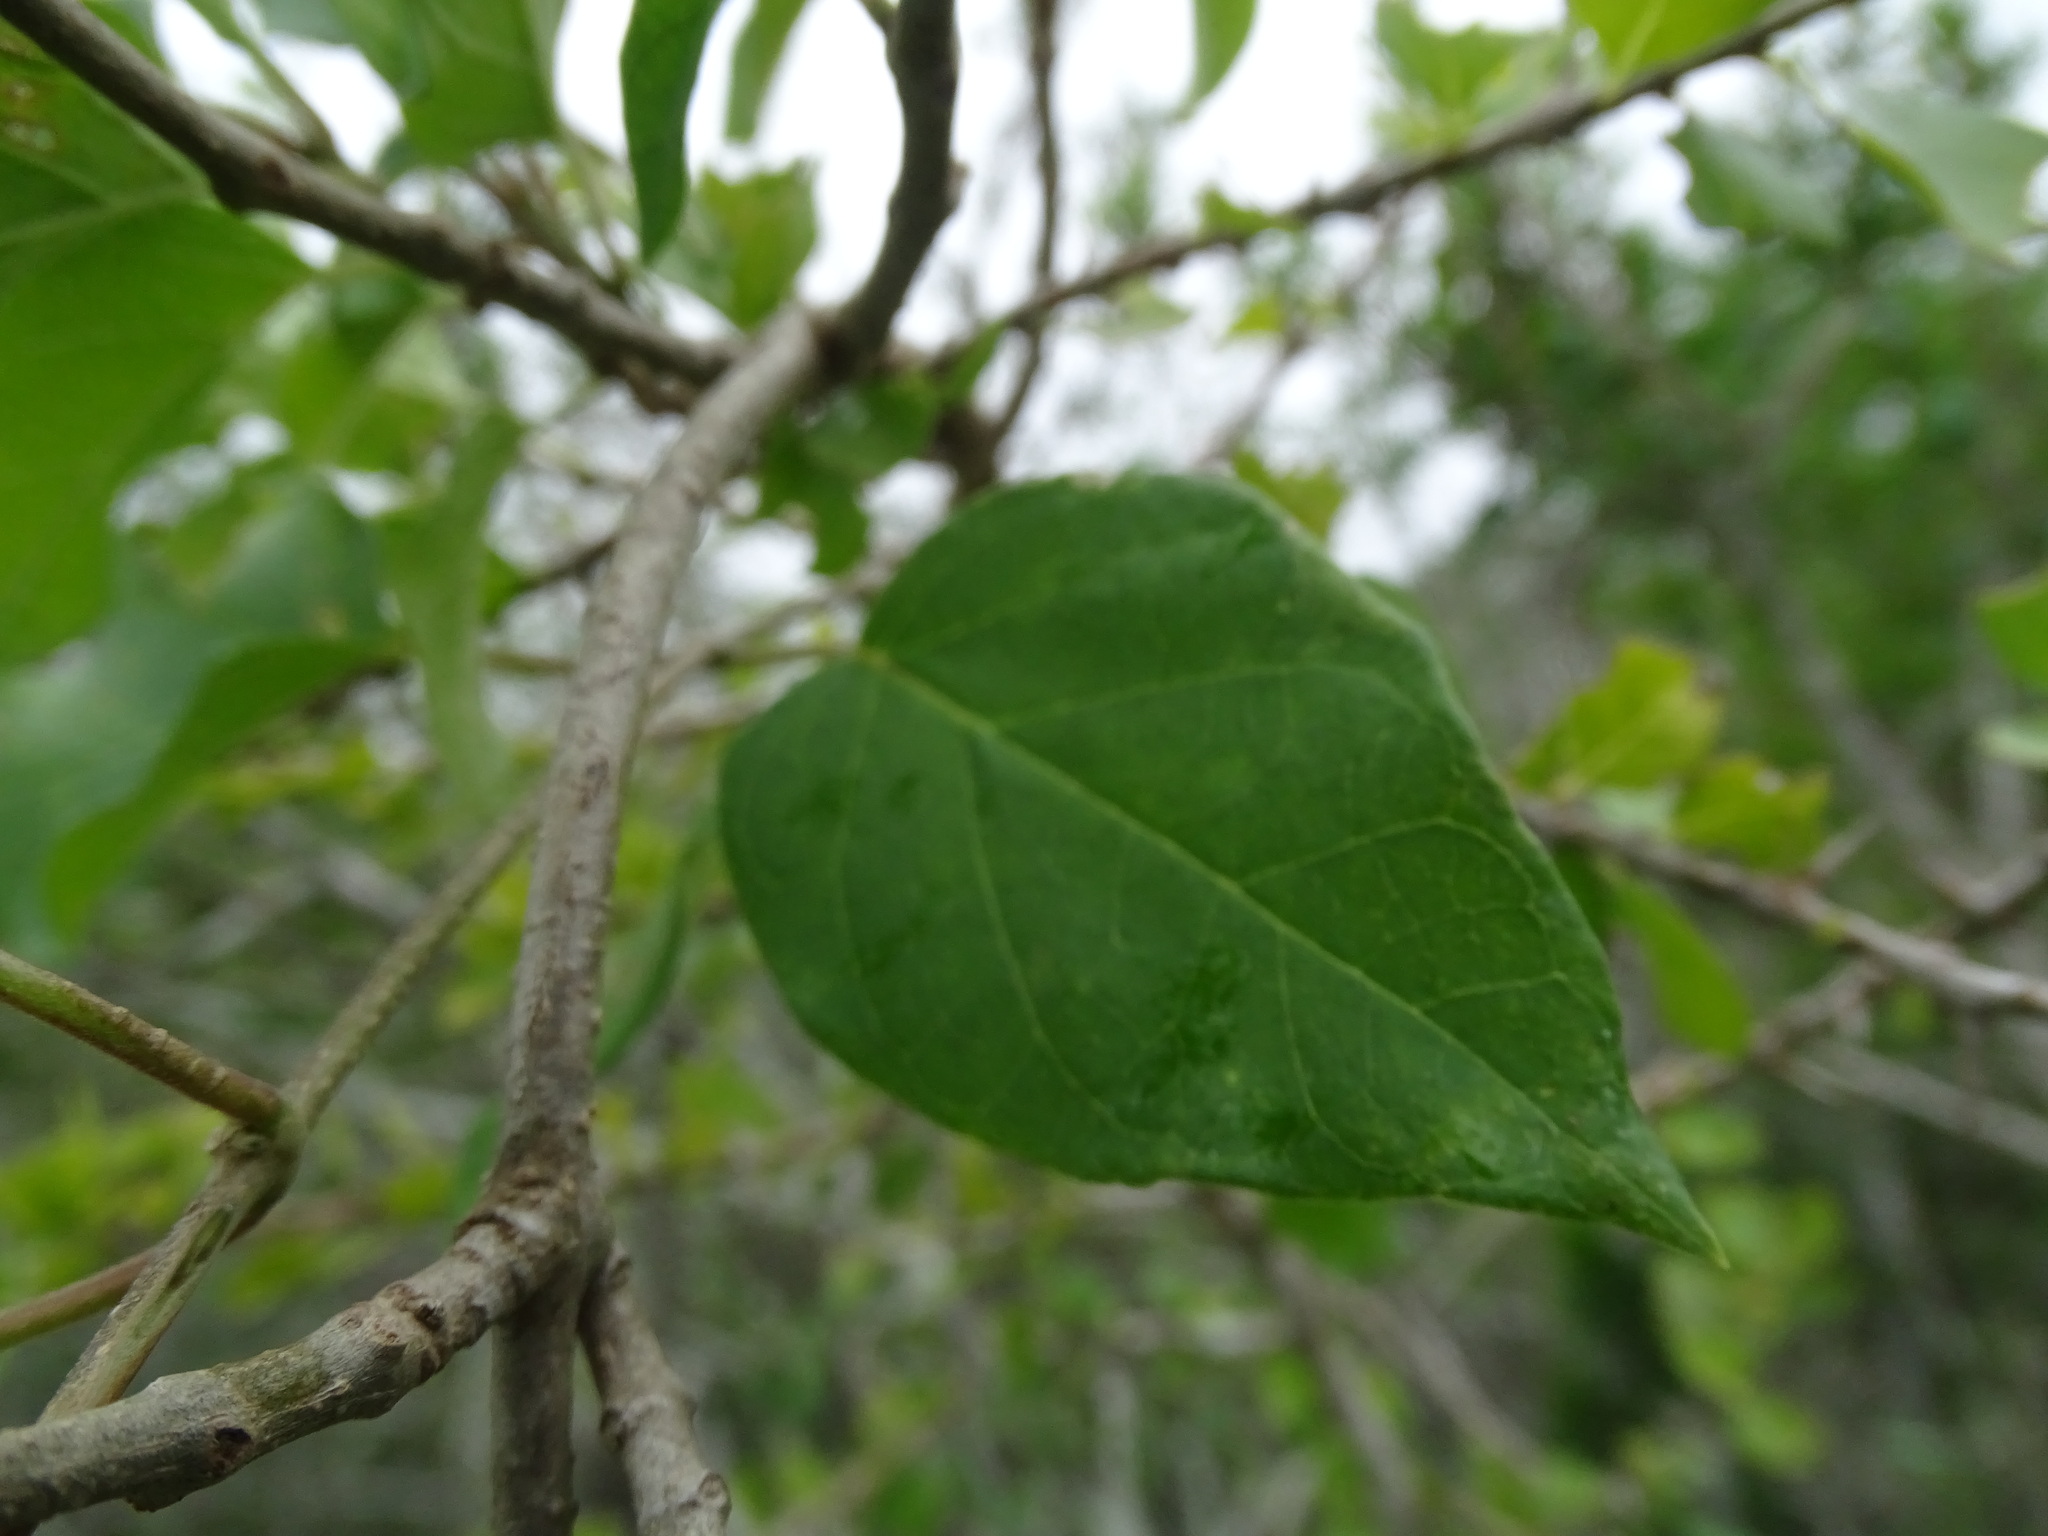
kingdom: Plantae
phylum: Tracheophyta
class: Magnoliopsida
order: Gentianales
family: Apocynaceae
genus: Ruehssia
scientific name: Ruehssia coulteri
